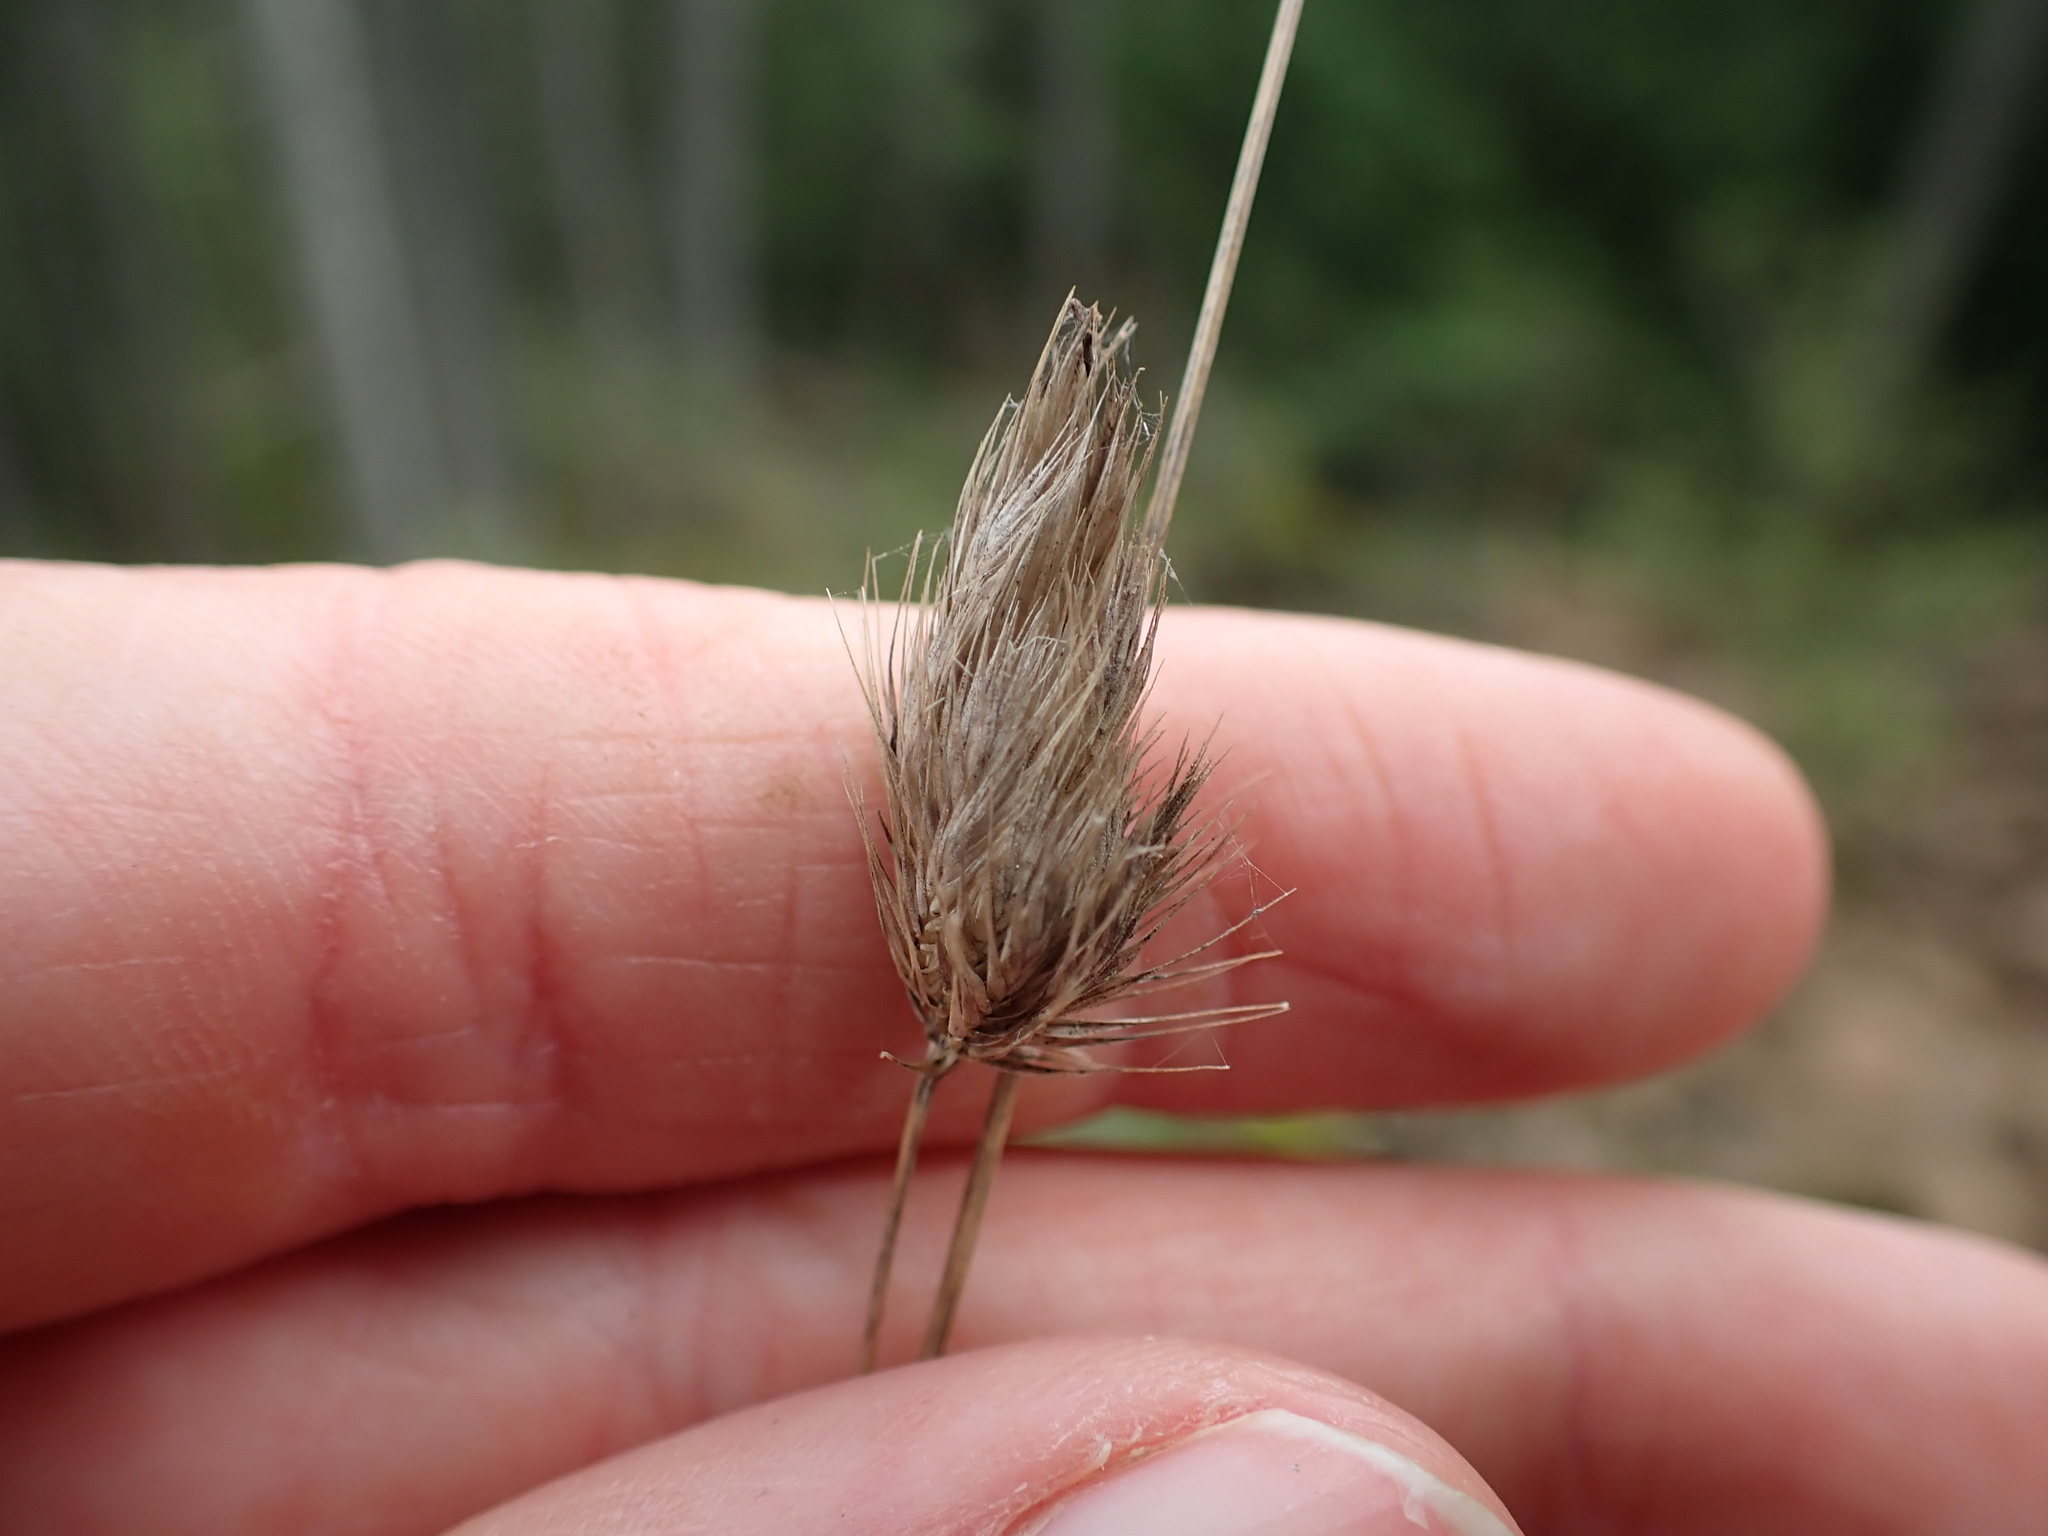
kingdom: Plantae
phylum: Tracheophyta
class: Liliopsida
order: Poales
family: Poaceae
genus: Cynosurus
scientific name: Cynosurus echinatus
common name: Rough dog's-tail
